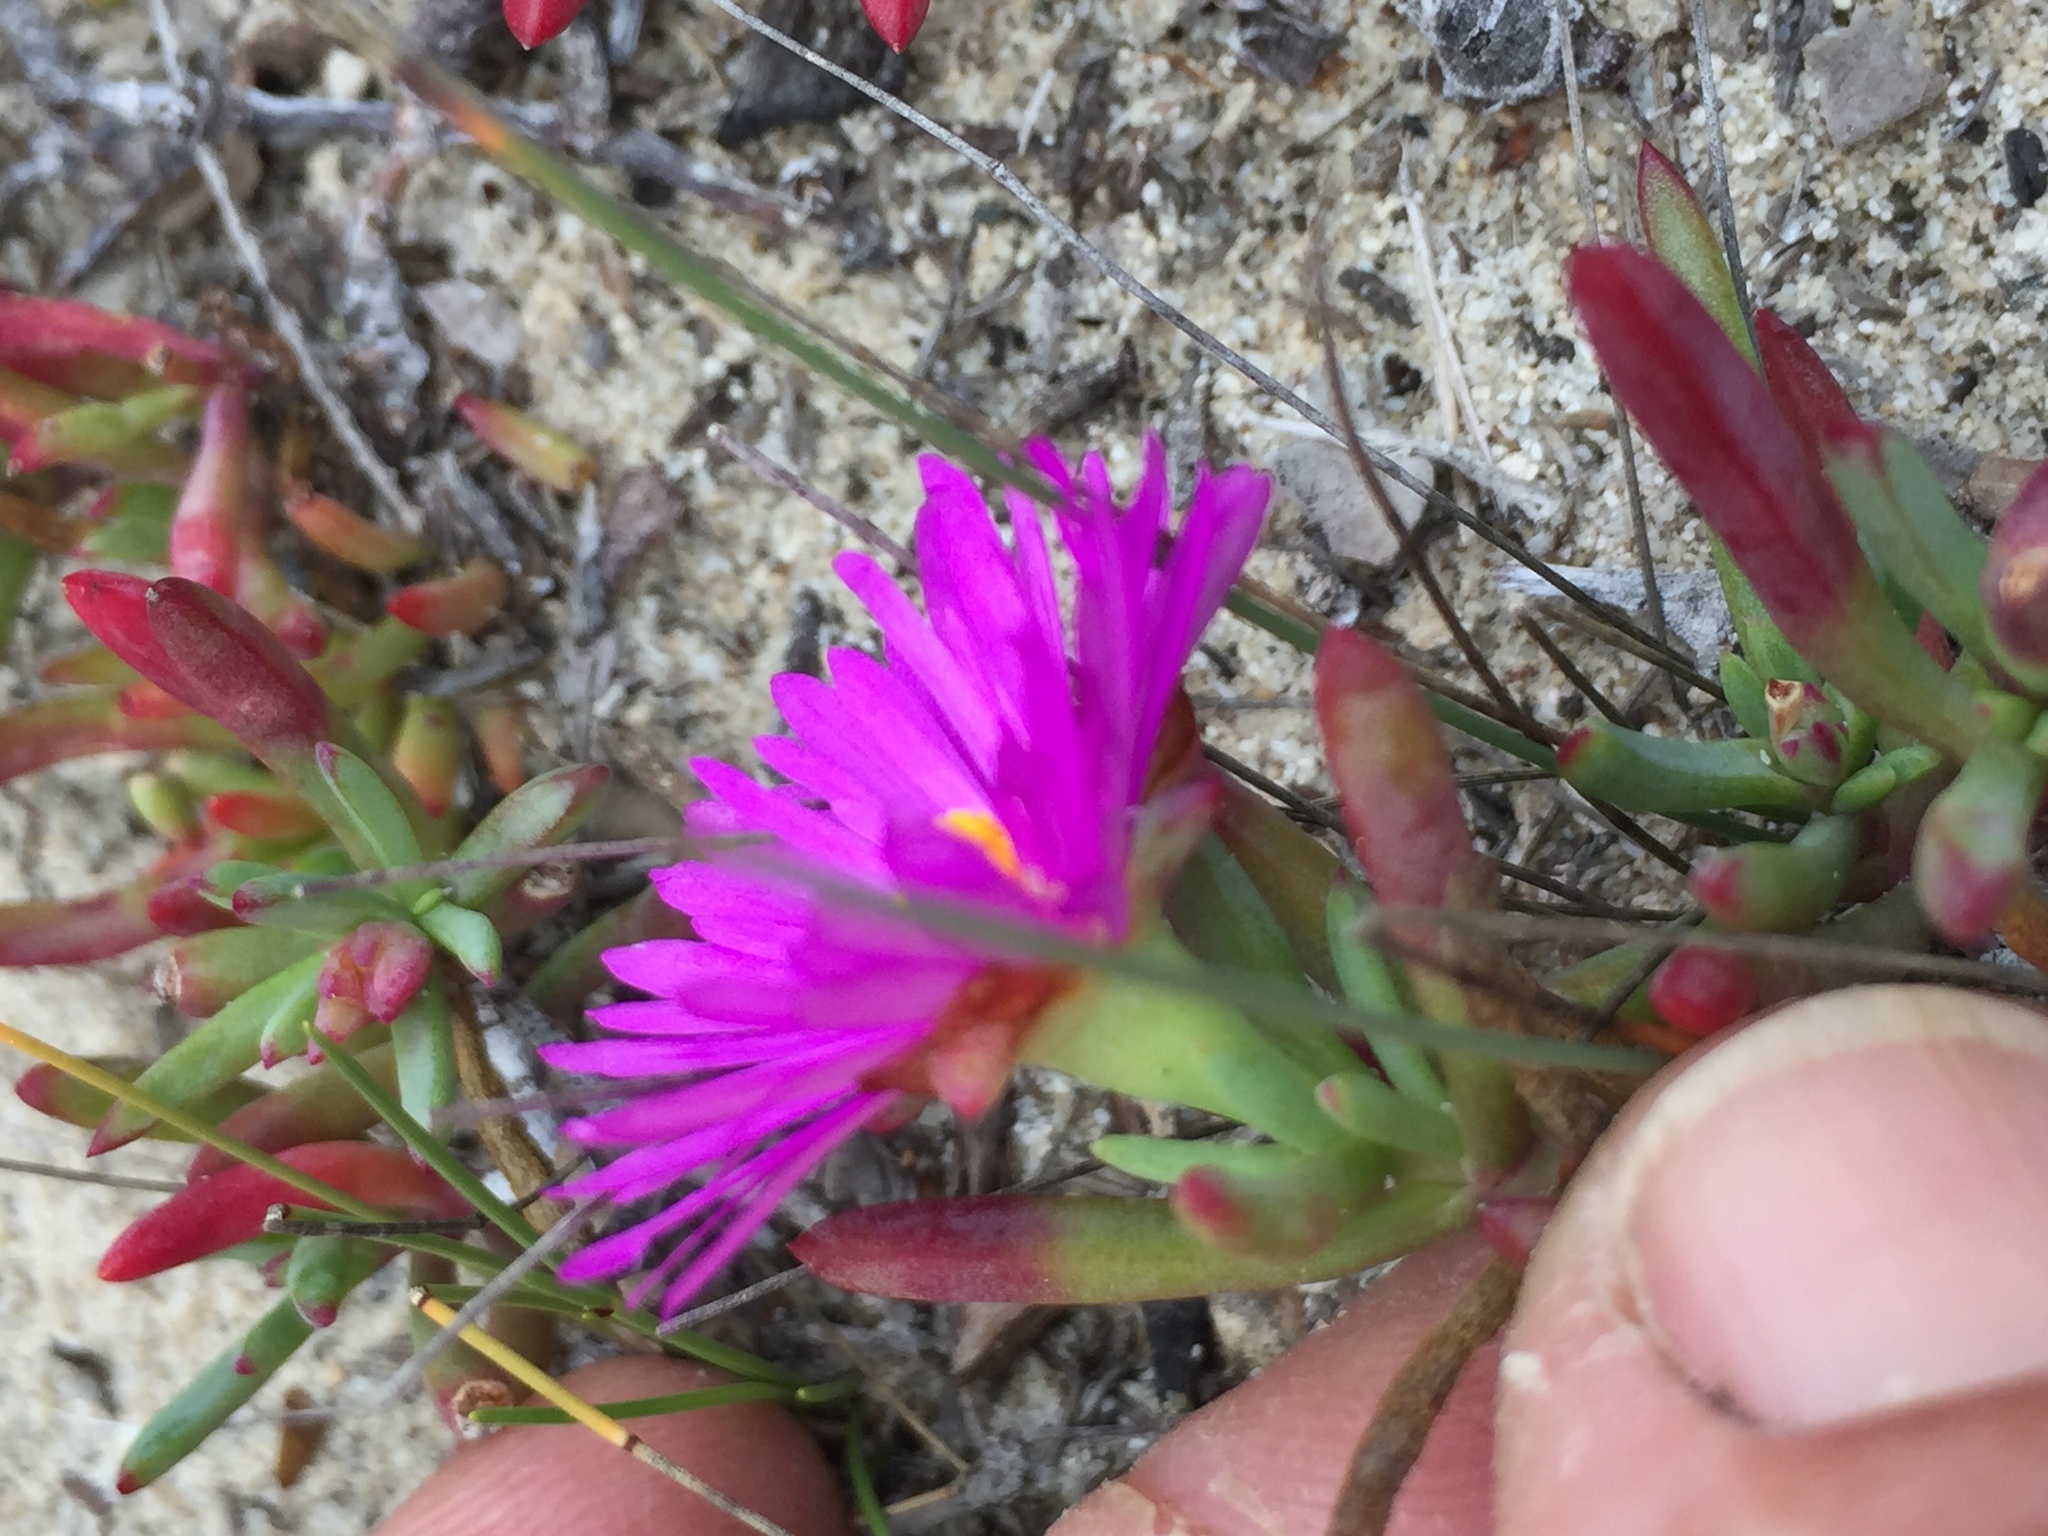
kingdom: Plantae
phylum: Tracheophyta
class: Magnoliopsida
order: Caryophyllales
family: Aizoaceae
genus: Lampranthus
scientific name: Lampranthus ceriseus
